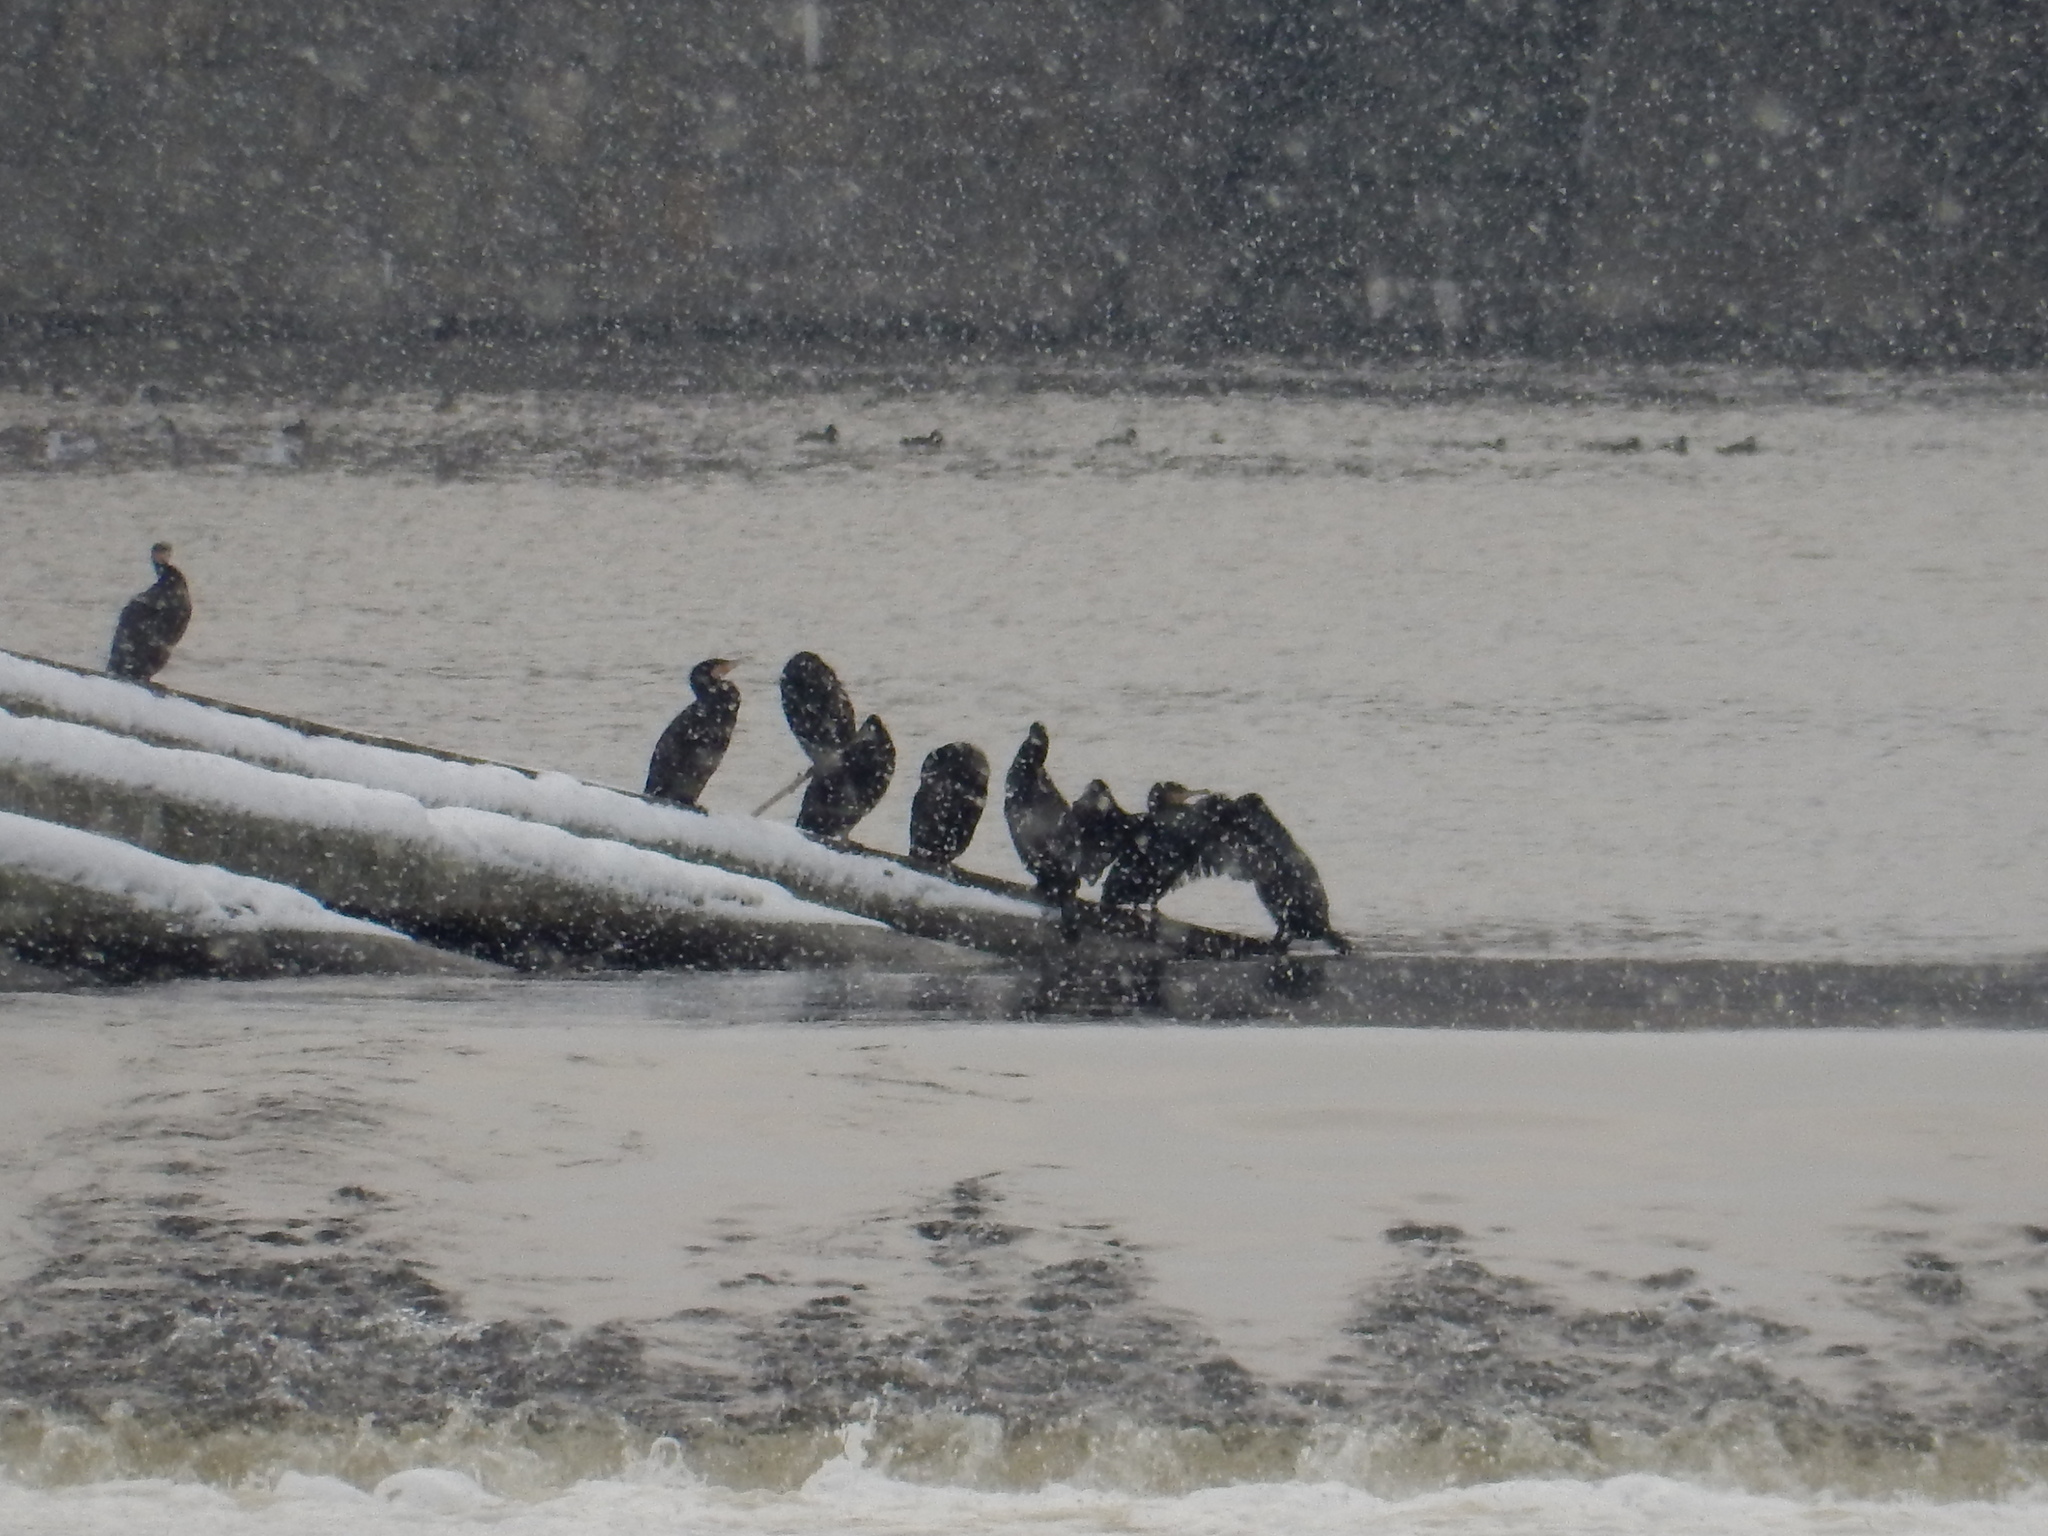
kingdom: Animalia
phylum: Chordata
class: Aves
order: Suliformes
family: Phalacrocoracidae
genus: Phalacrocorax
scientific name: Phalacrocorax carbo
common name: Great cormorant
